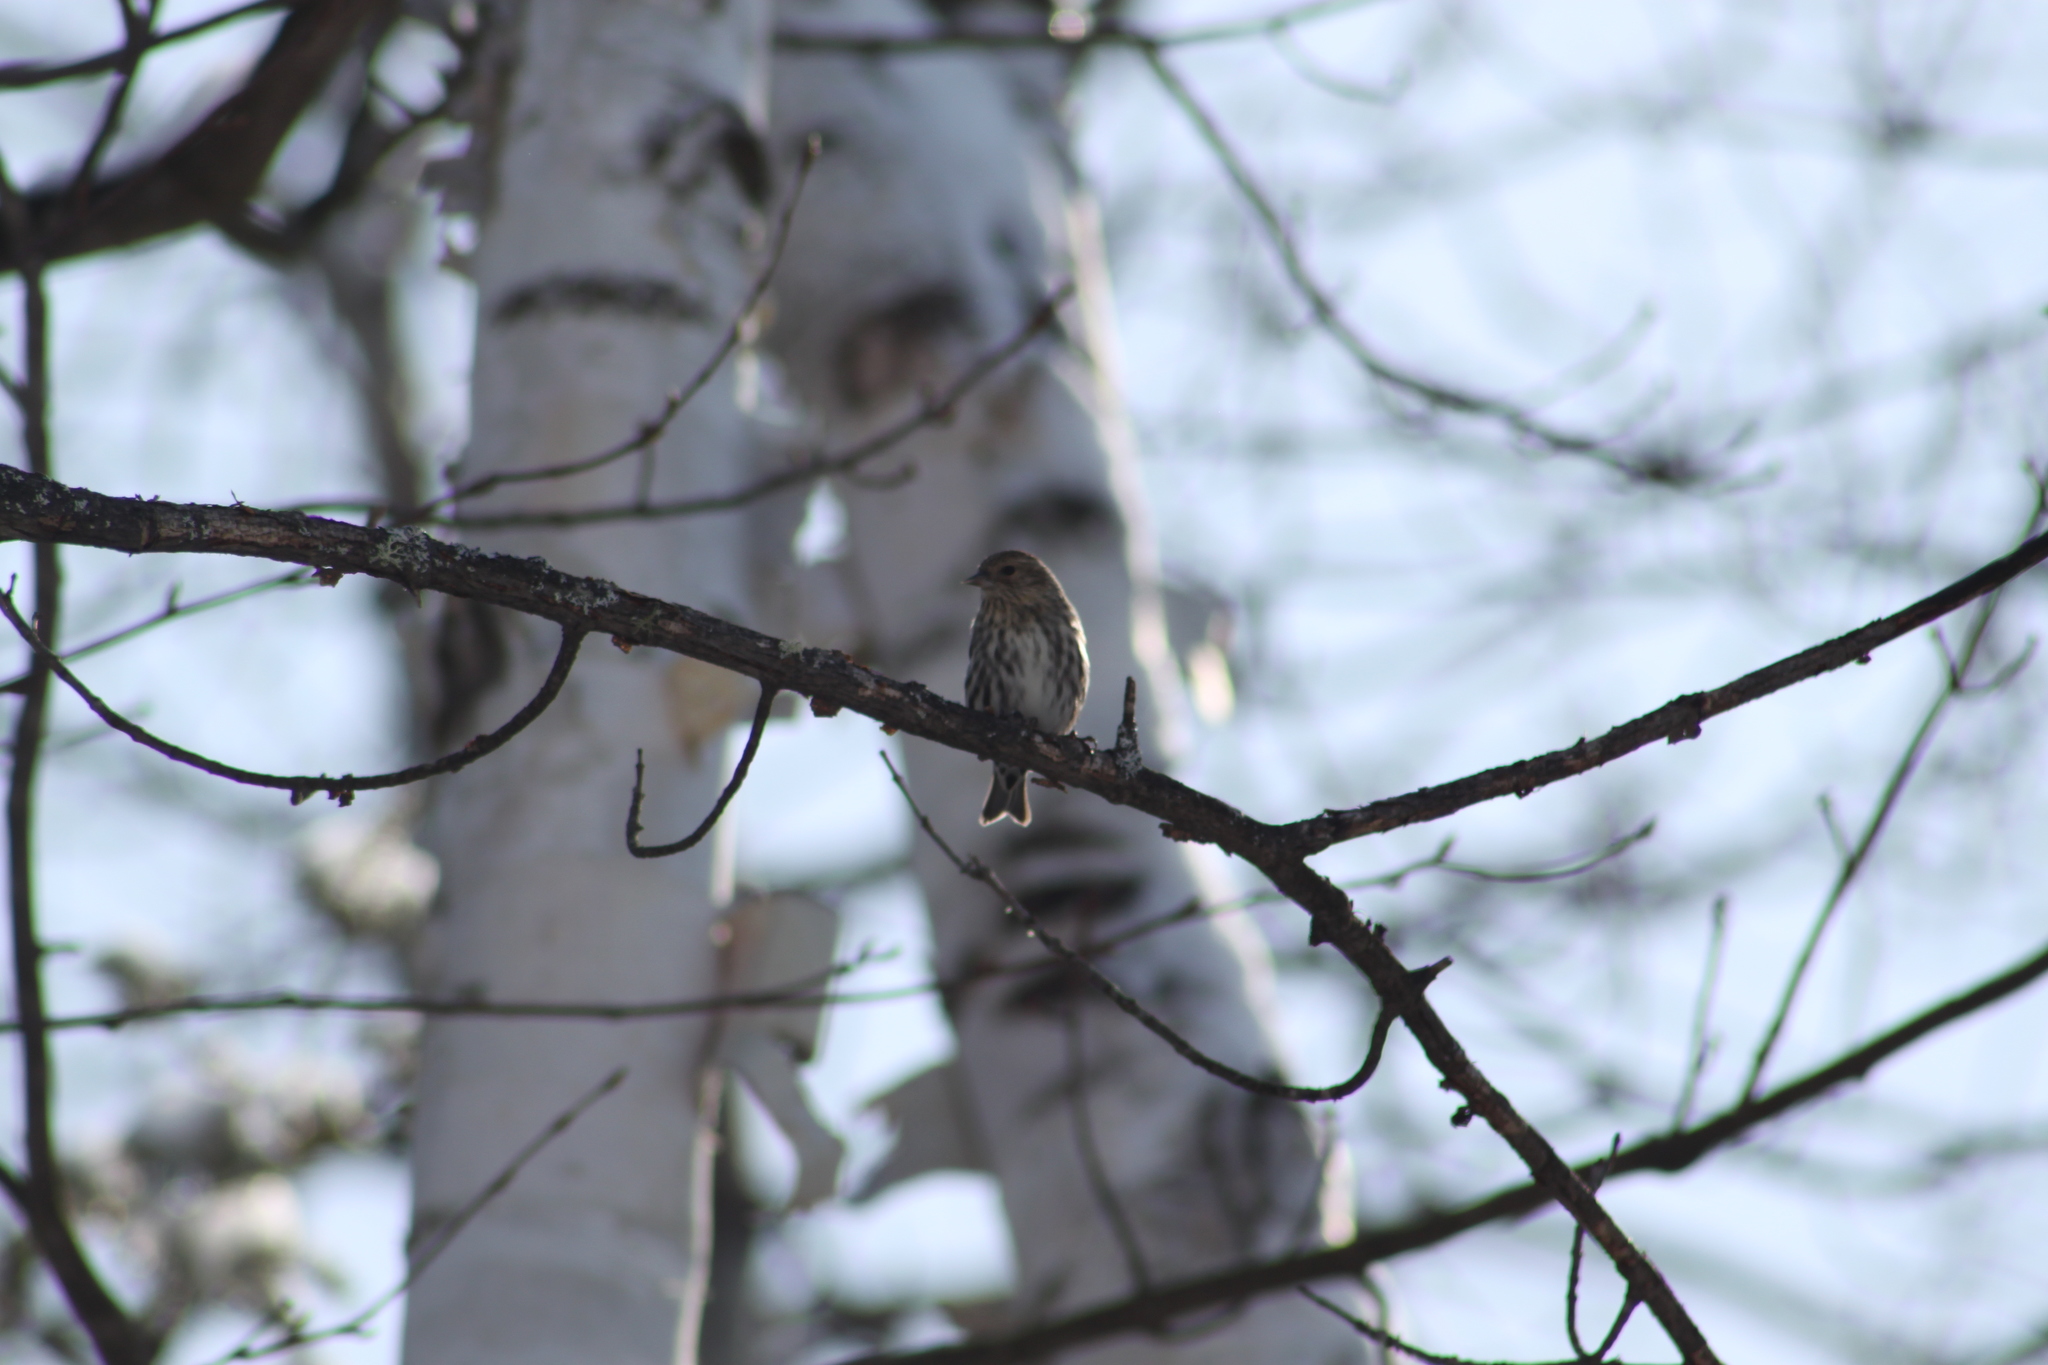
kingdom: Animalia
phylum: Chordata
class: Aves
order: Passeriformes
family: Fringillidae
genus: Spinus
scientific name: Spinus pinus
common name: Pine siskin
